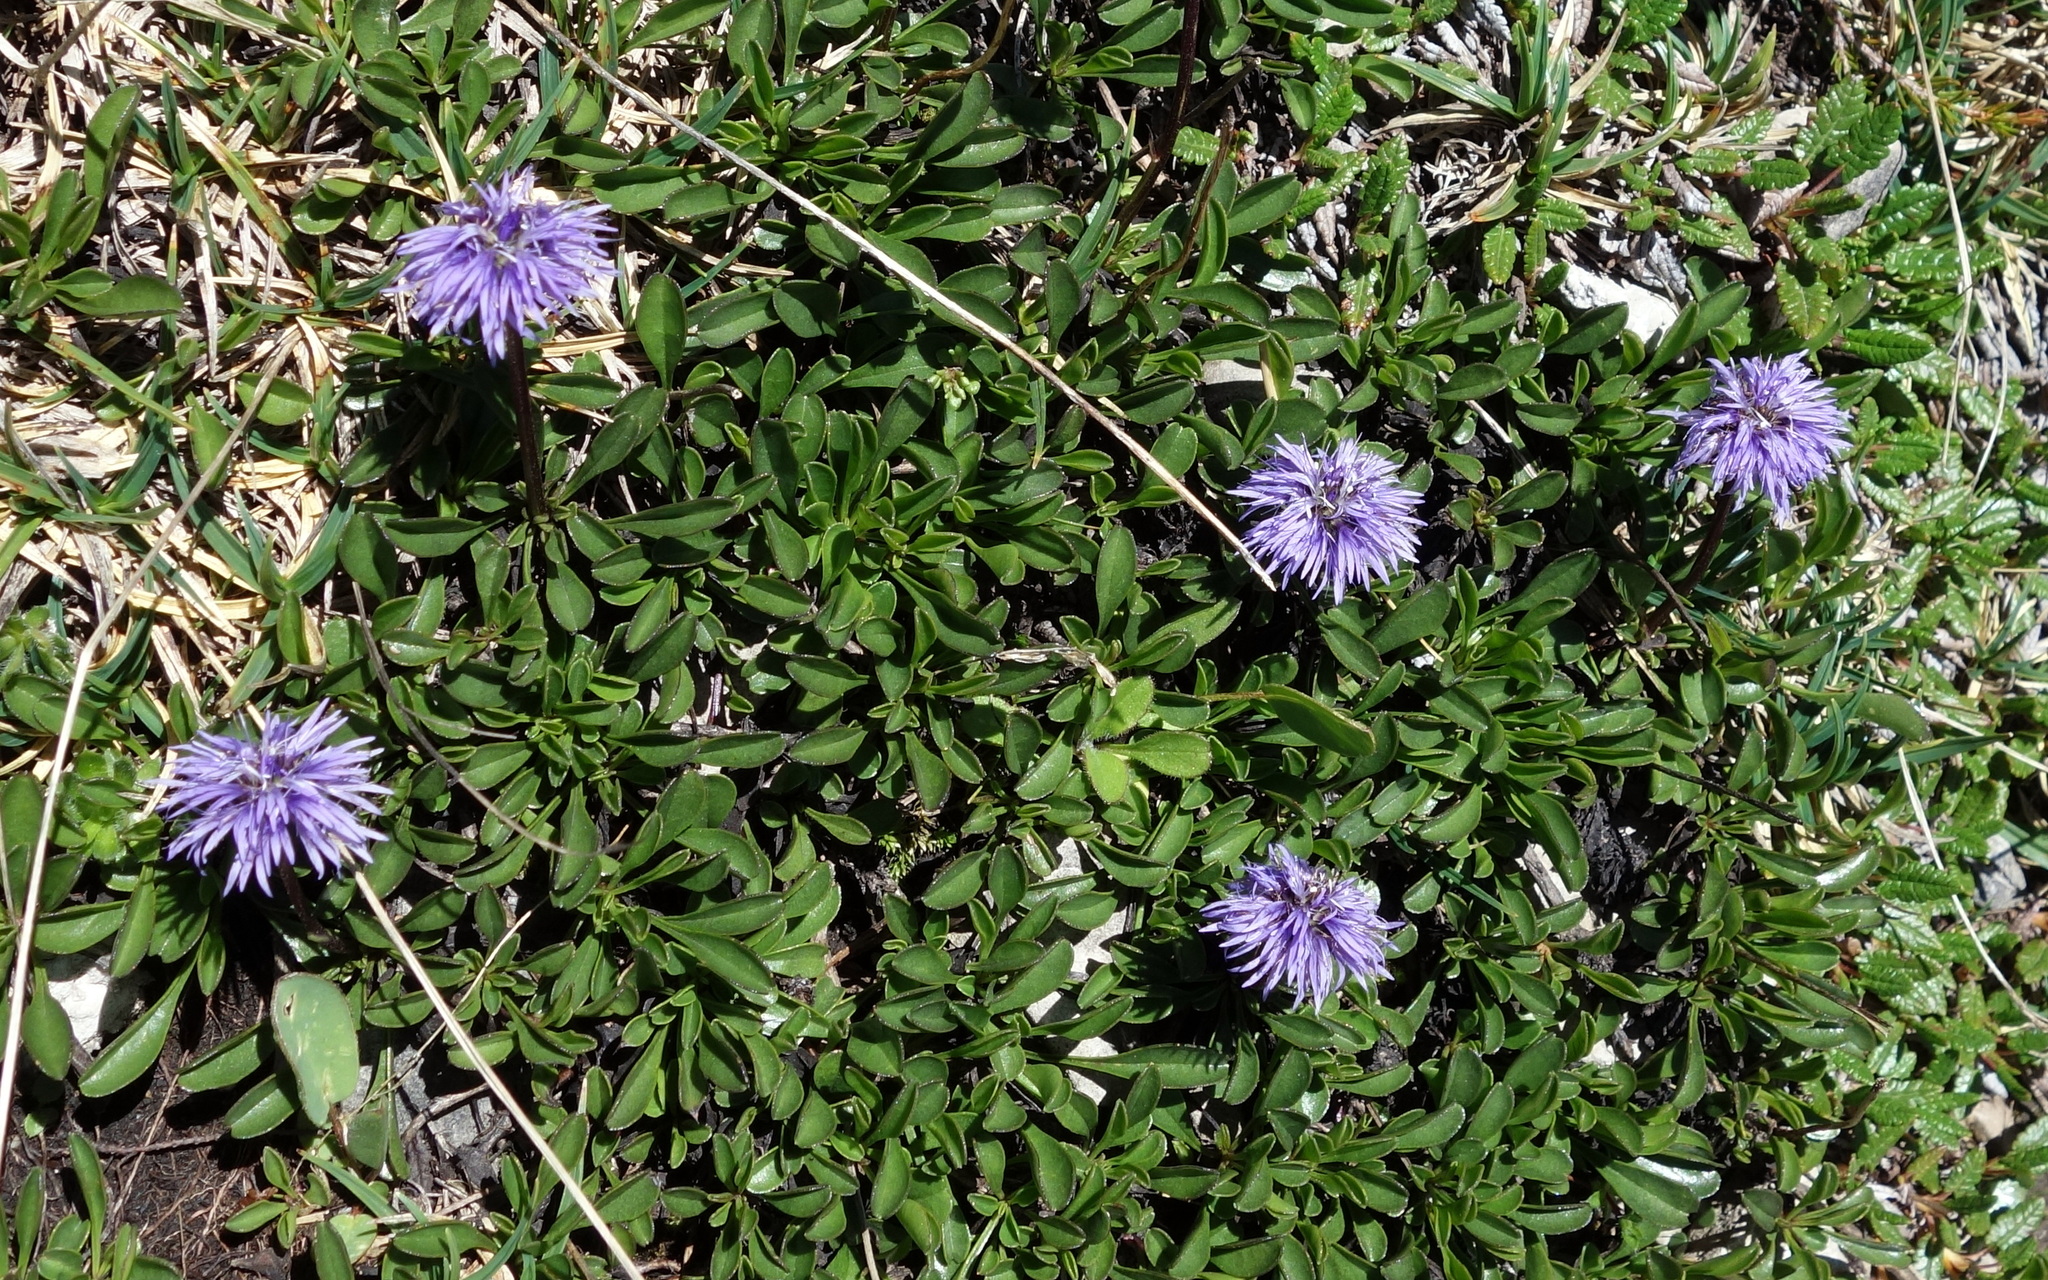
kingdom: Plantae
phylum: Tracheophyta
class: Magnoliopsida
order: Lamiales
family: Plantaginaceae
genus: Globularia
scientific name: Globularia cordifolia
